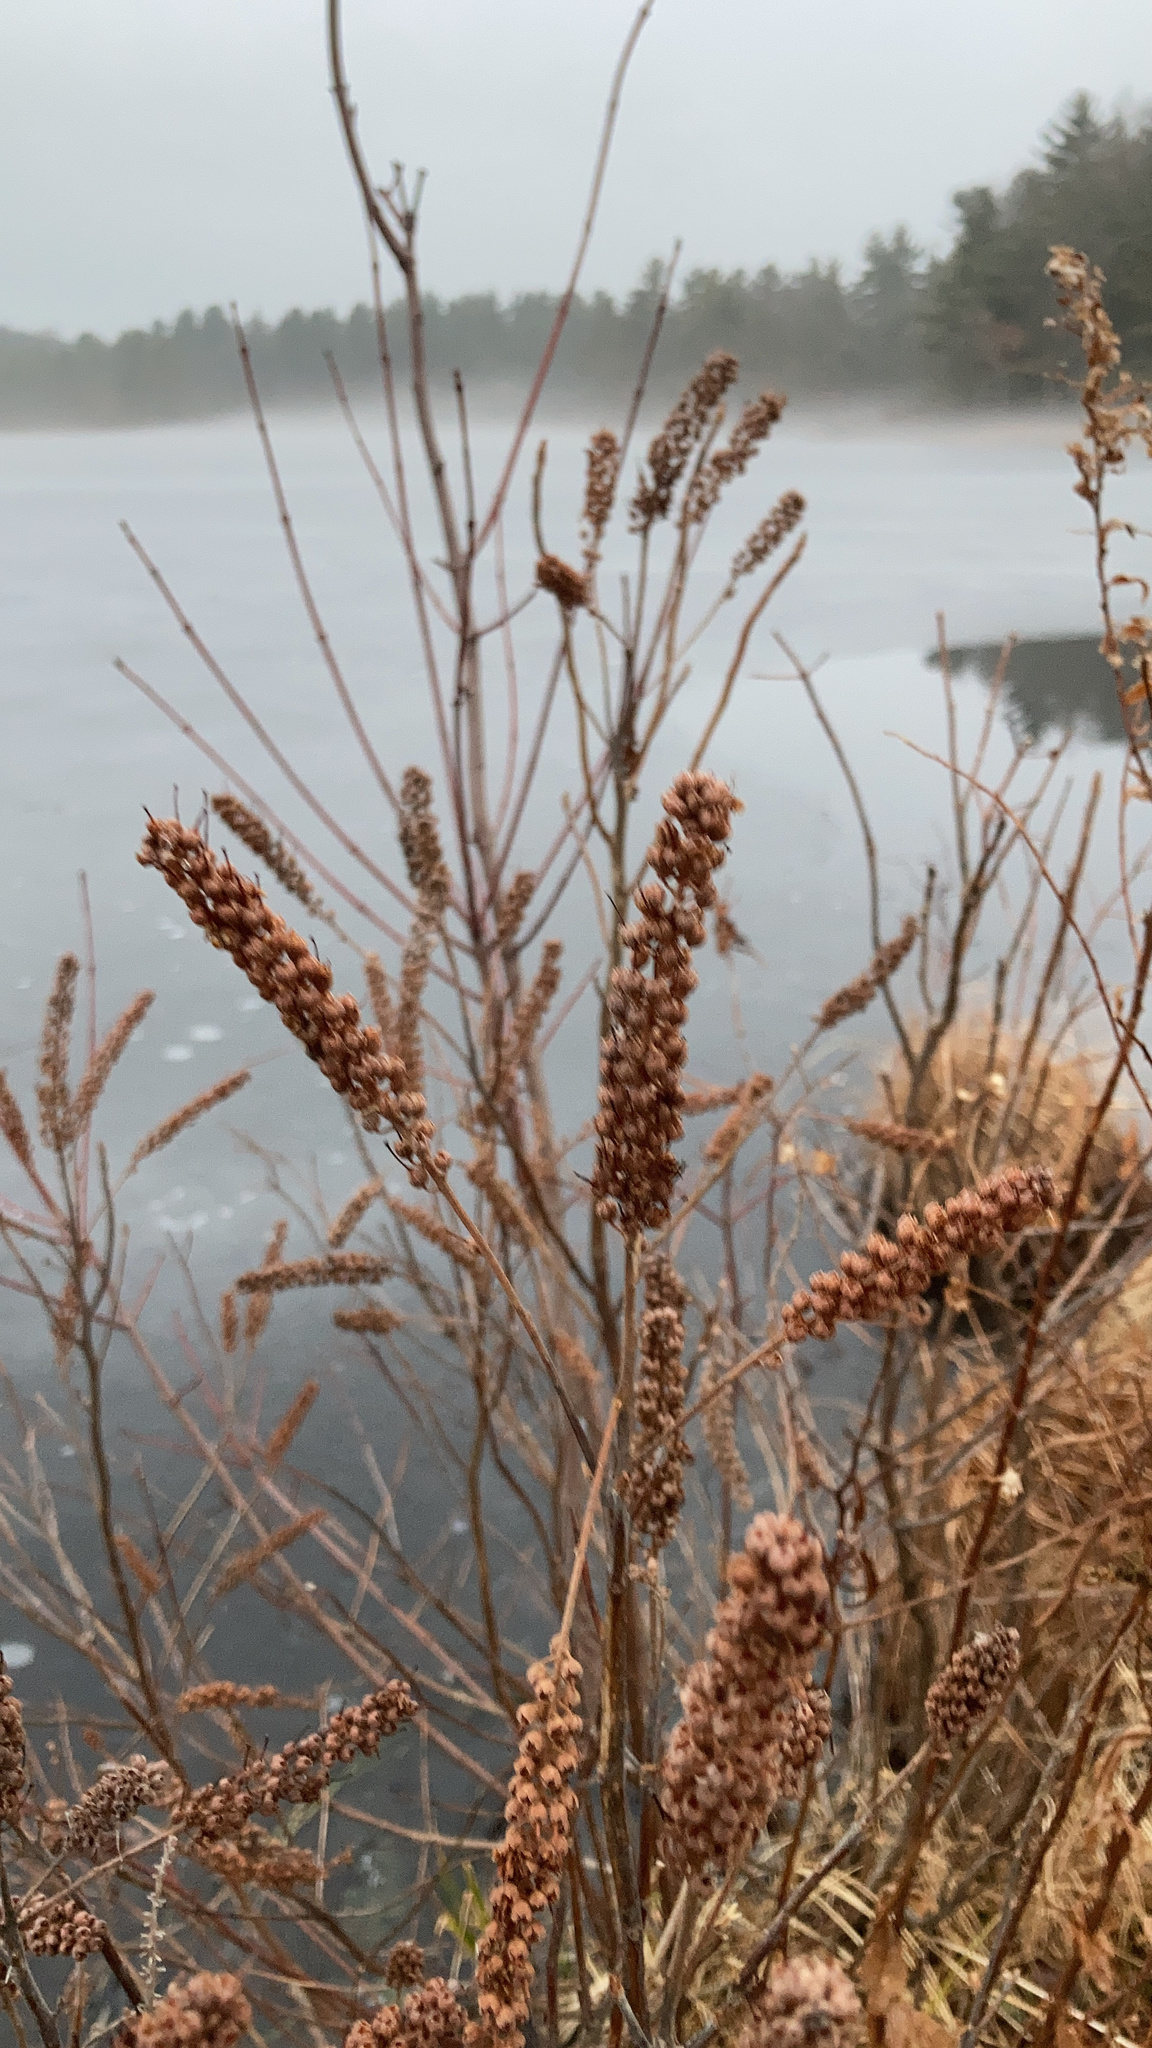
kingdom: Plantae
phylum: Tracheophyta
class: Magnoliopsida
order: Ericales
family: Clethraceae
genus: Clethra
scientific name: Clethra alnifolia
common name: Sweet pepperbush
